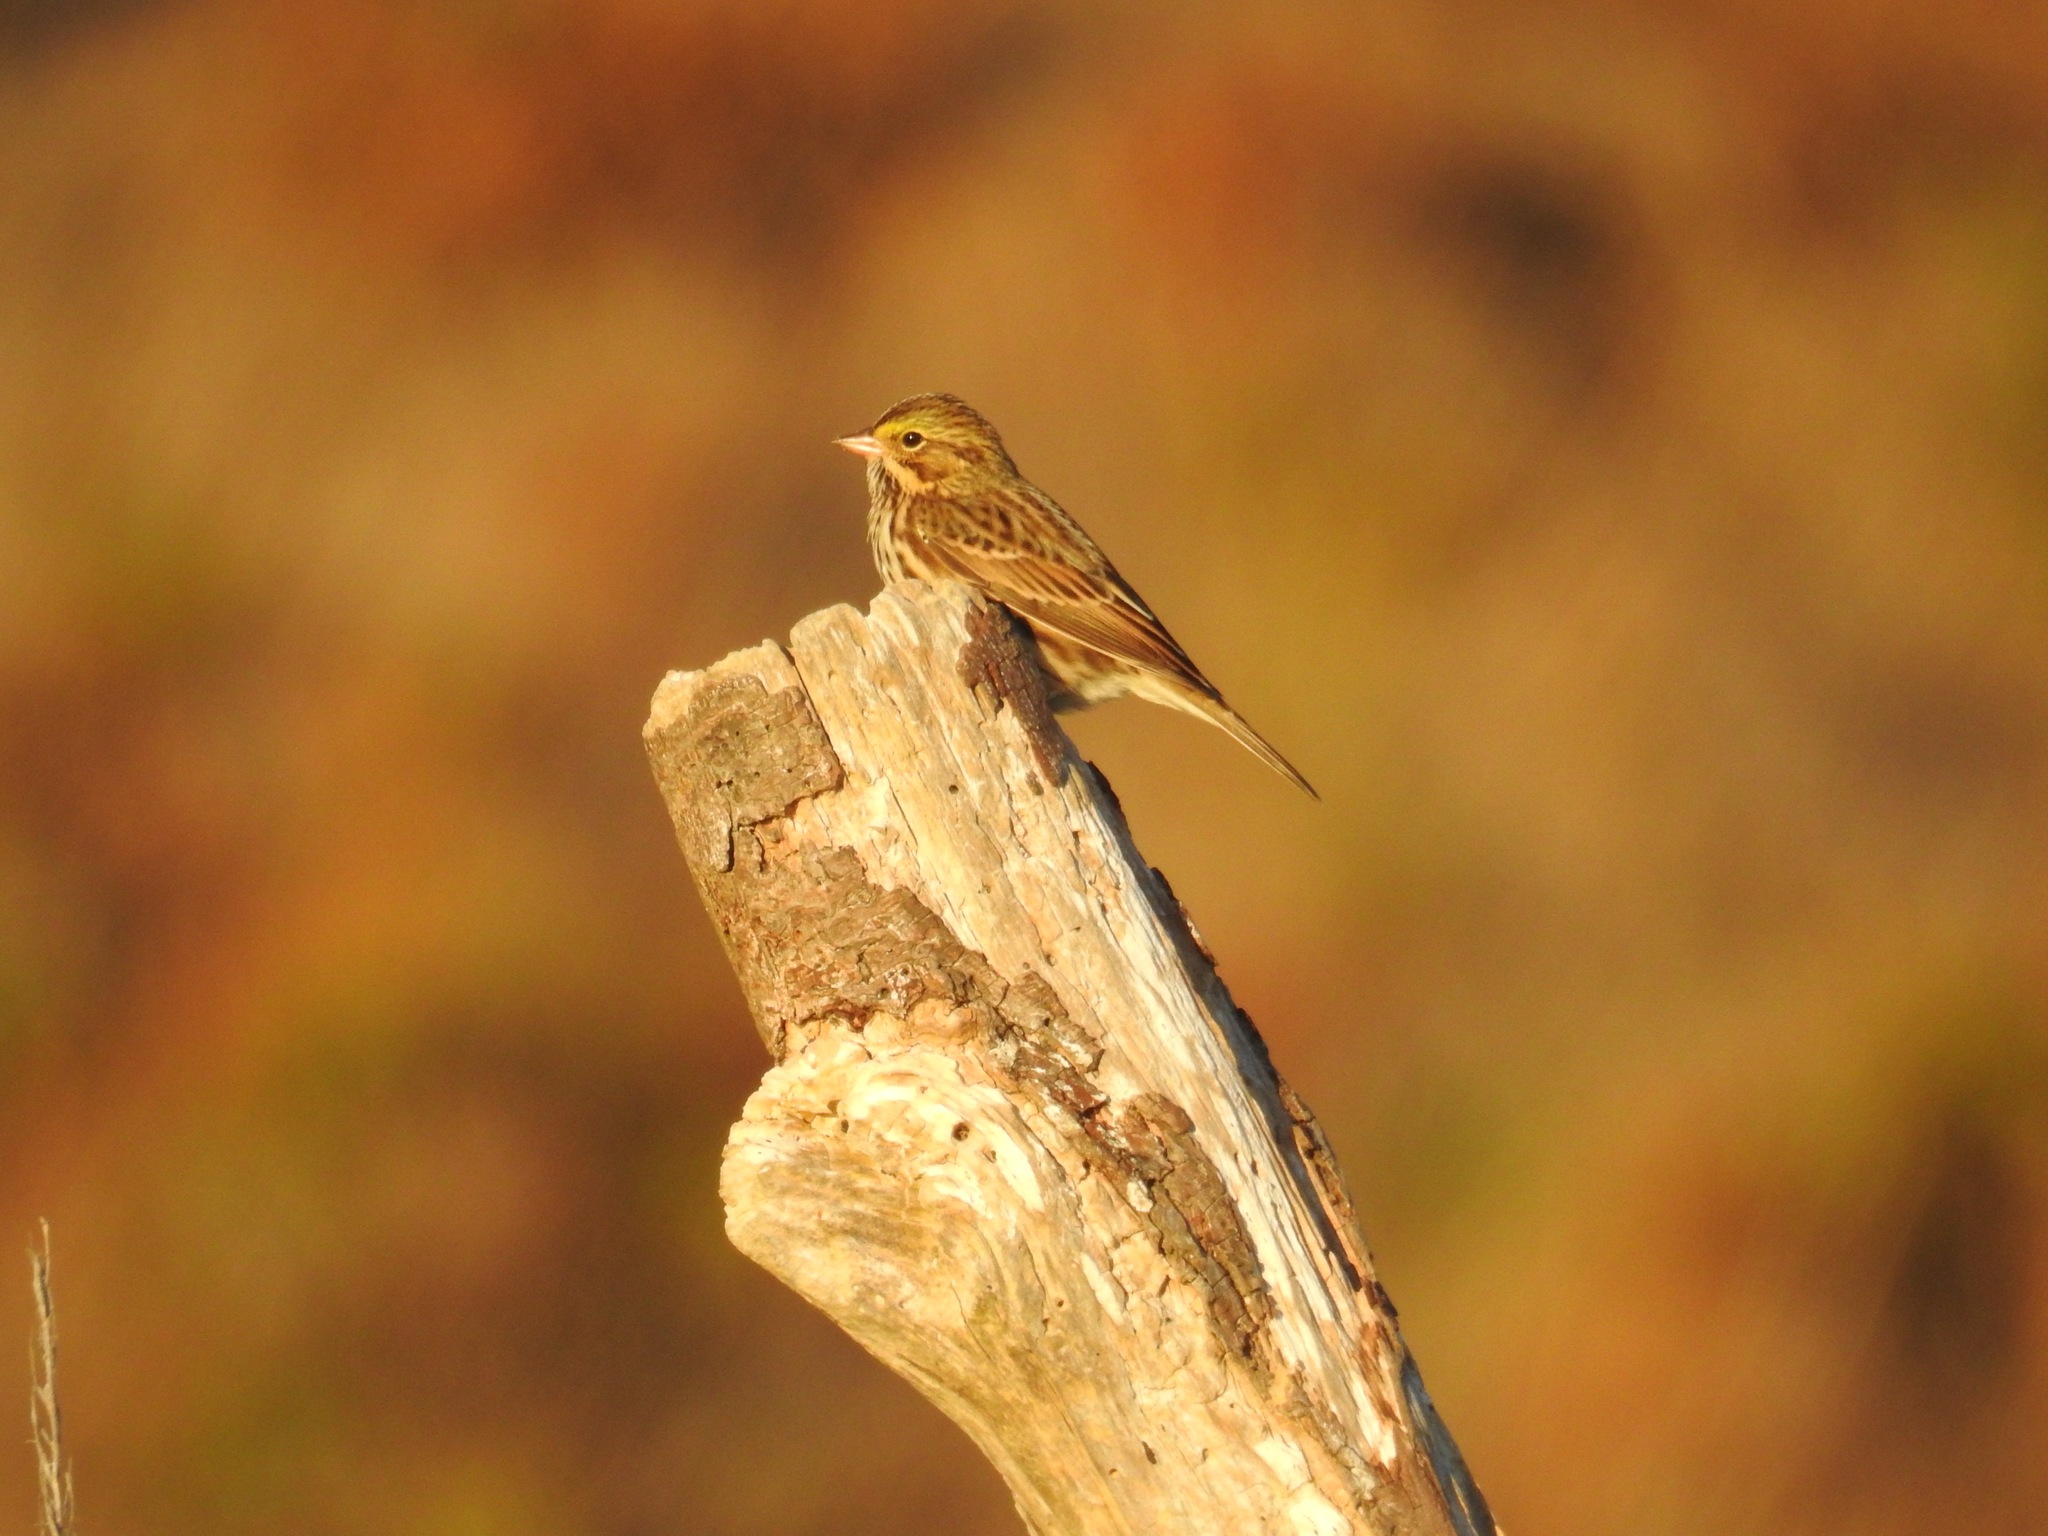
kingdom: Animalia
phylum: Chordata
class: Aves
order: Passeriformes
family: Passerellidae
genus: Passerculus
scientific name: Passerculus sandwichensis
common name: Savannah sparrow
